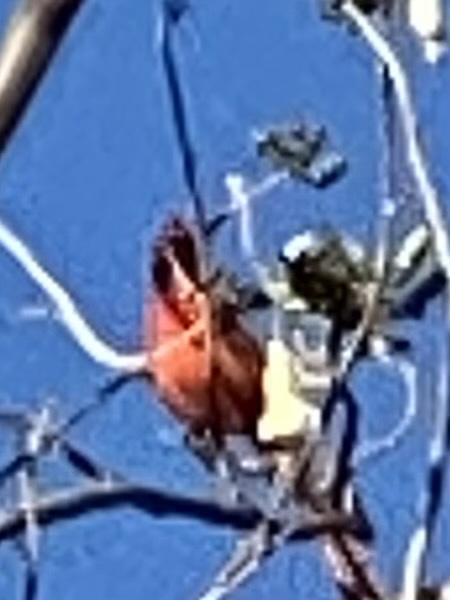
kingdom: Animalia
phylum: Chordata
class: Aves
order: Passeriformes
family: Cardinalidae
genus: Cardinalis
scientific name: Cardinalis cardinalis
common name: Northern cardinal
